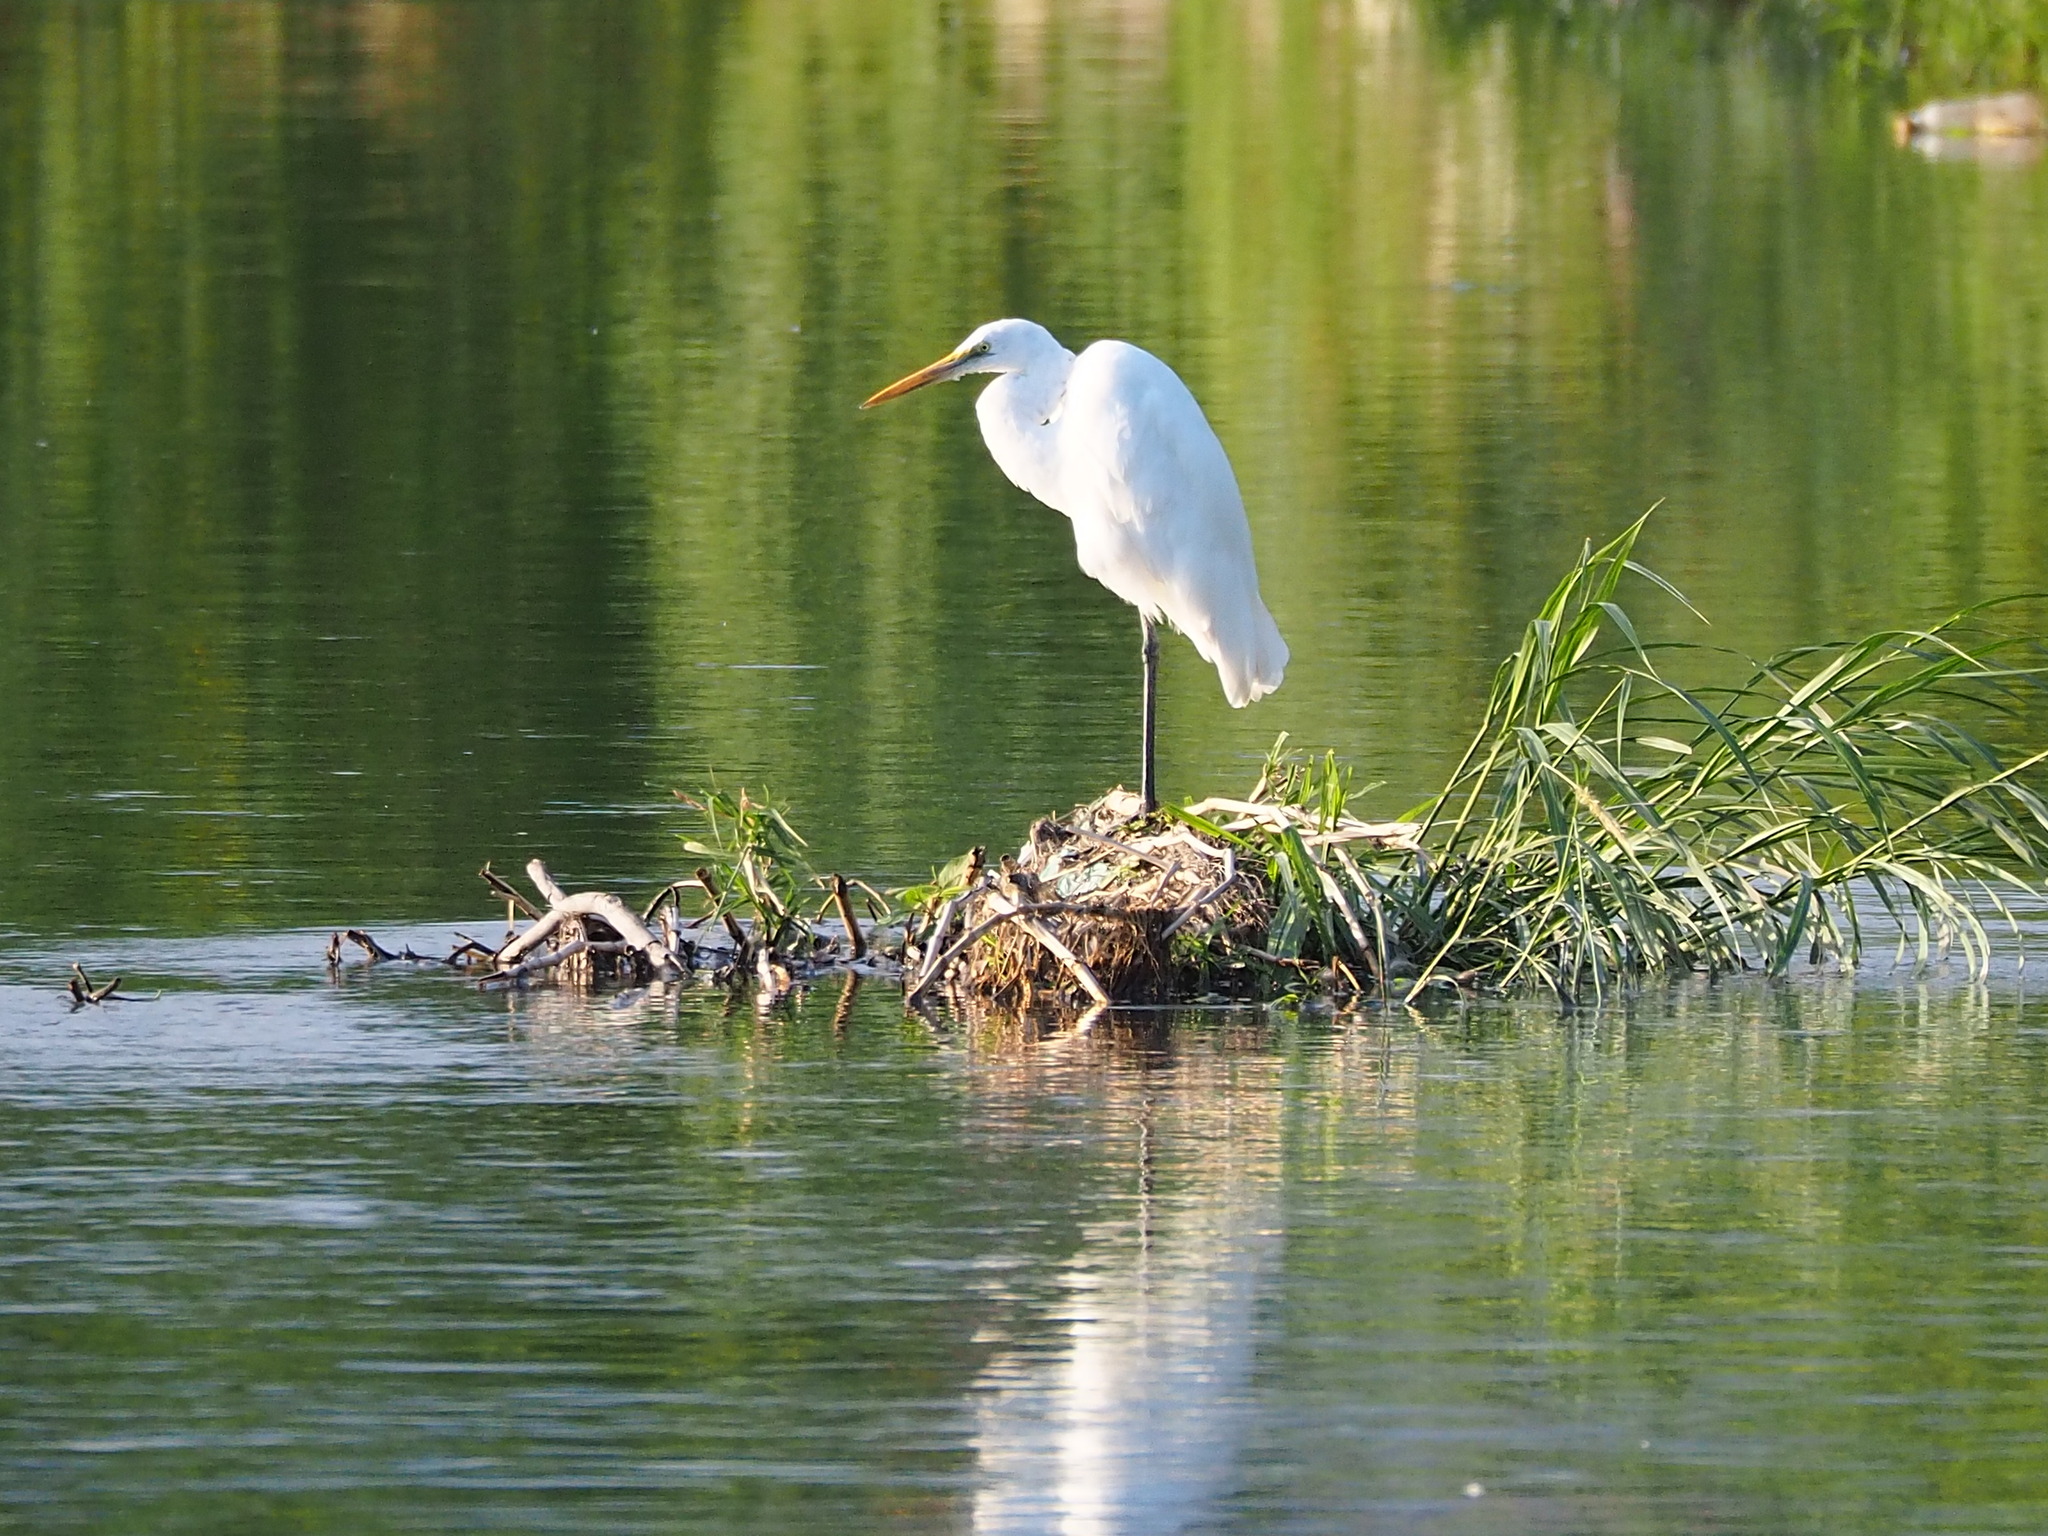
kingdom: Animalia
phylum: Chordata
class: Aves
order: Pelecaniformes
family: Ardeidae
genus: Ardea
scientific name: Ardea alba
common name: Great egret
